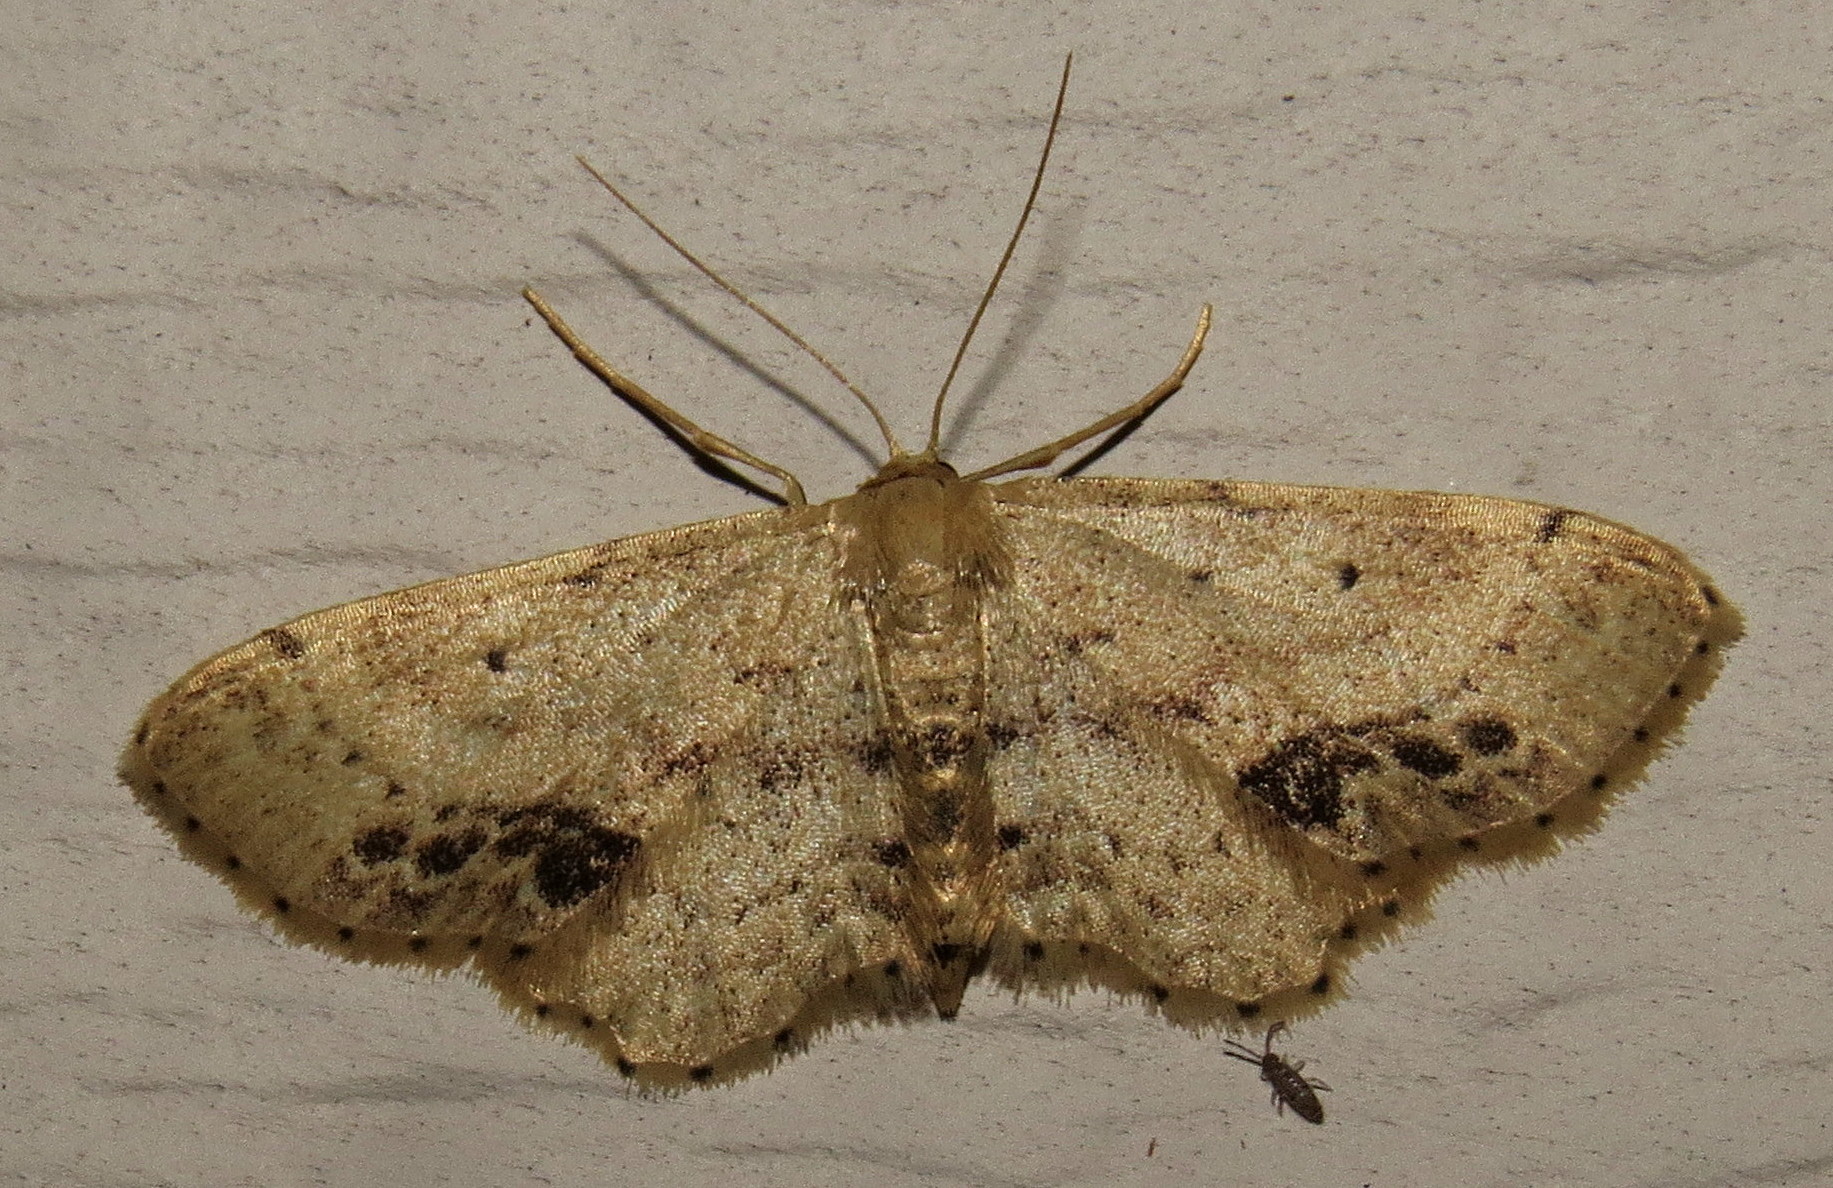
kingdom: Animalia
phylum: Arthropoda
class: Insecta
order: Lepidoptera
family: Geometridae
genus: Idaea
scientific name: Idaea dimidiata
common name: Single-dotted wave
